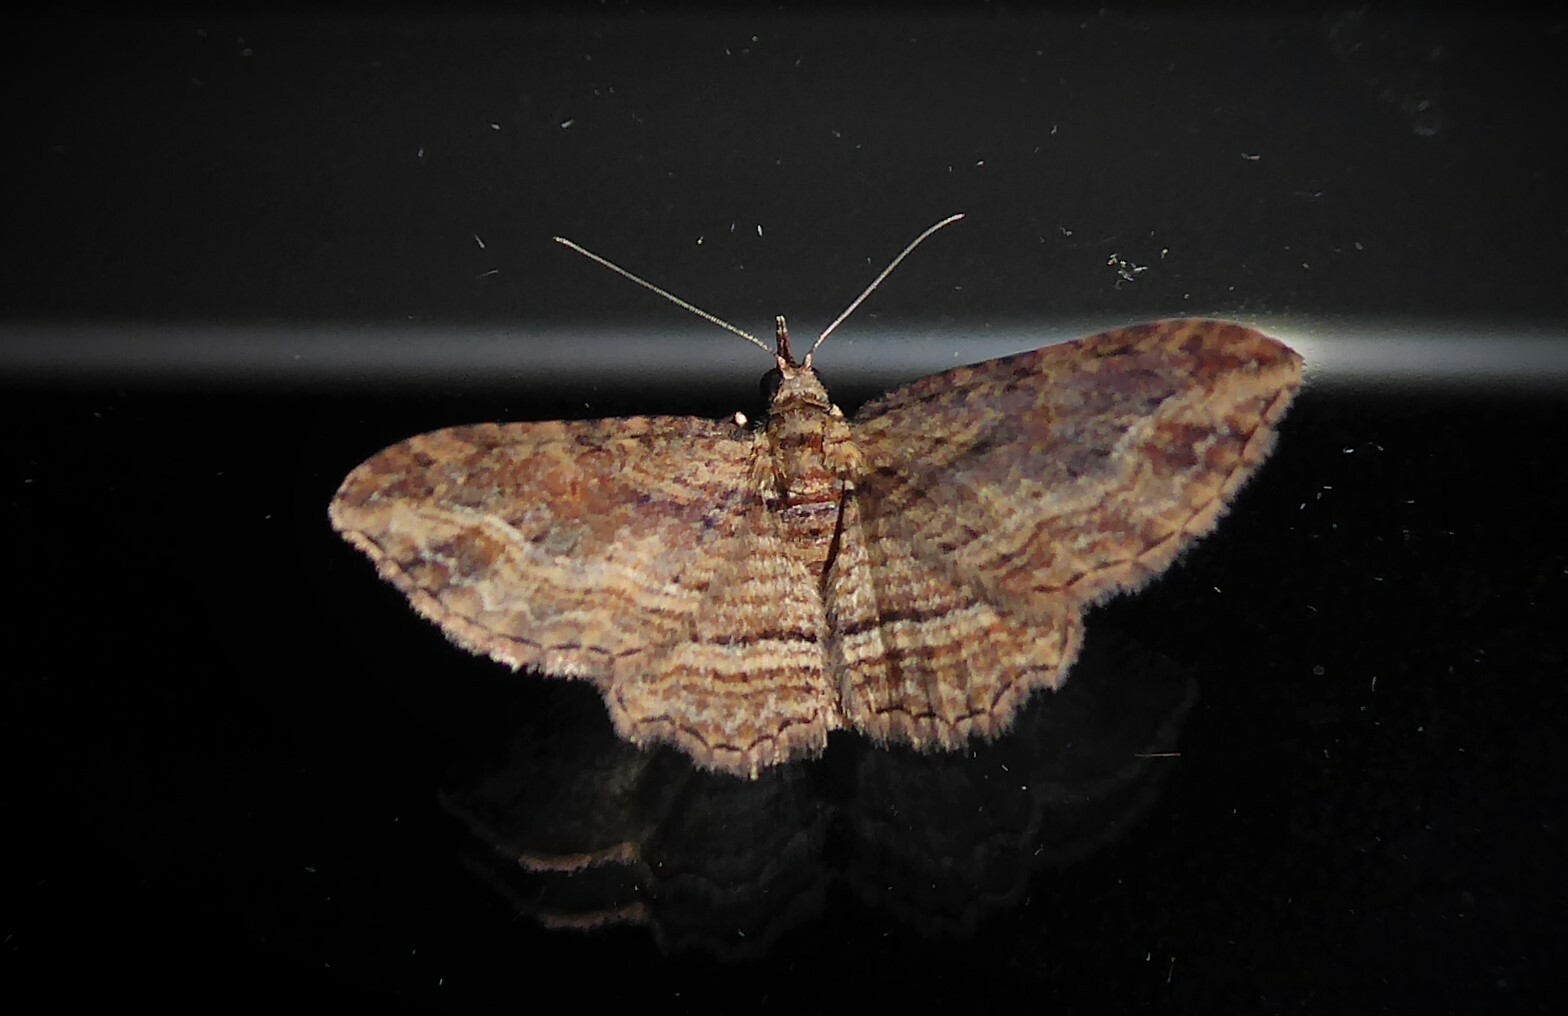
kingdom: Animalia
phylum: Arthropoda
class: Insecta
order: Lepidoptera
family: Geometridae
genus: Chloroclystis
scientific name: Chloroclystis filata
